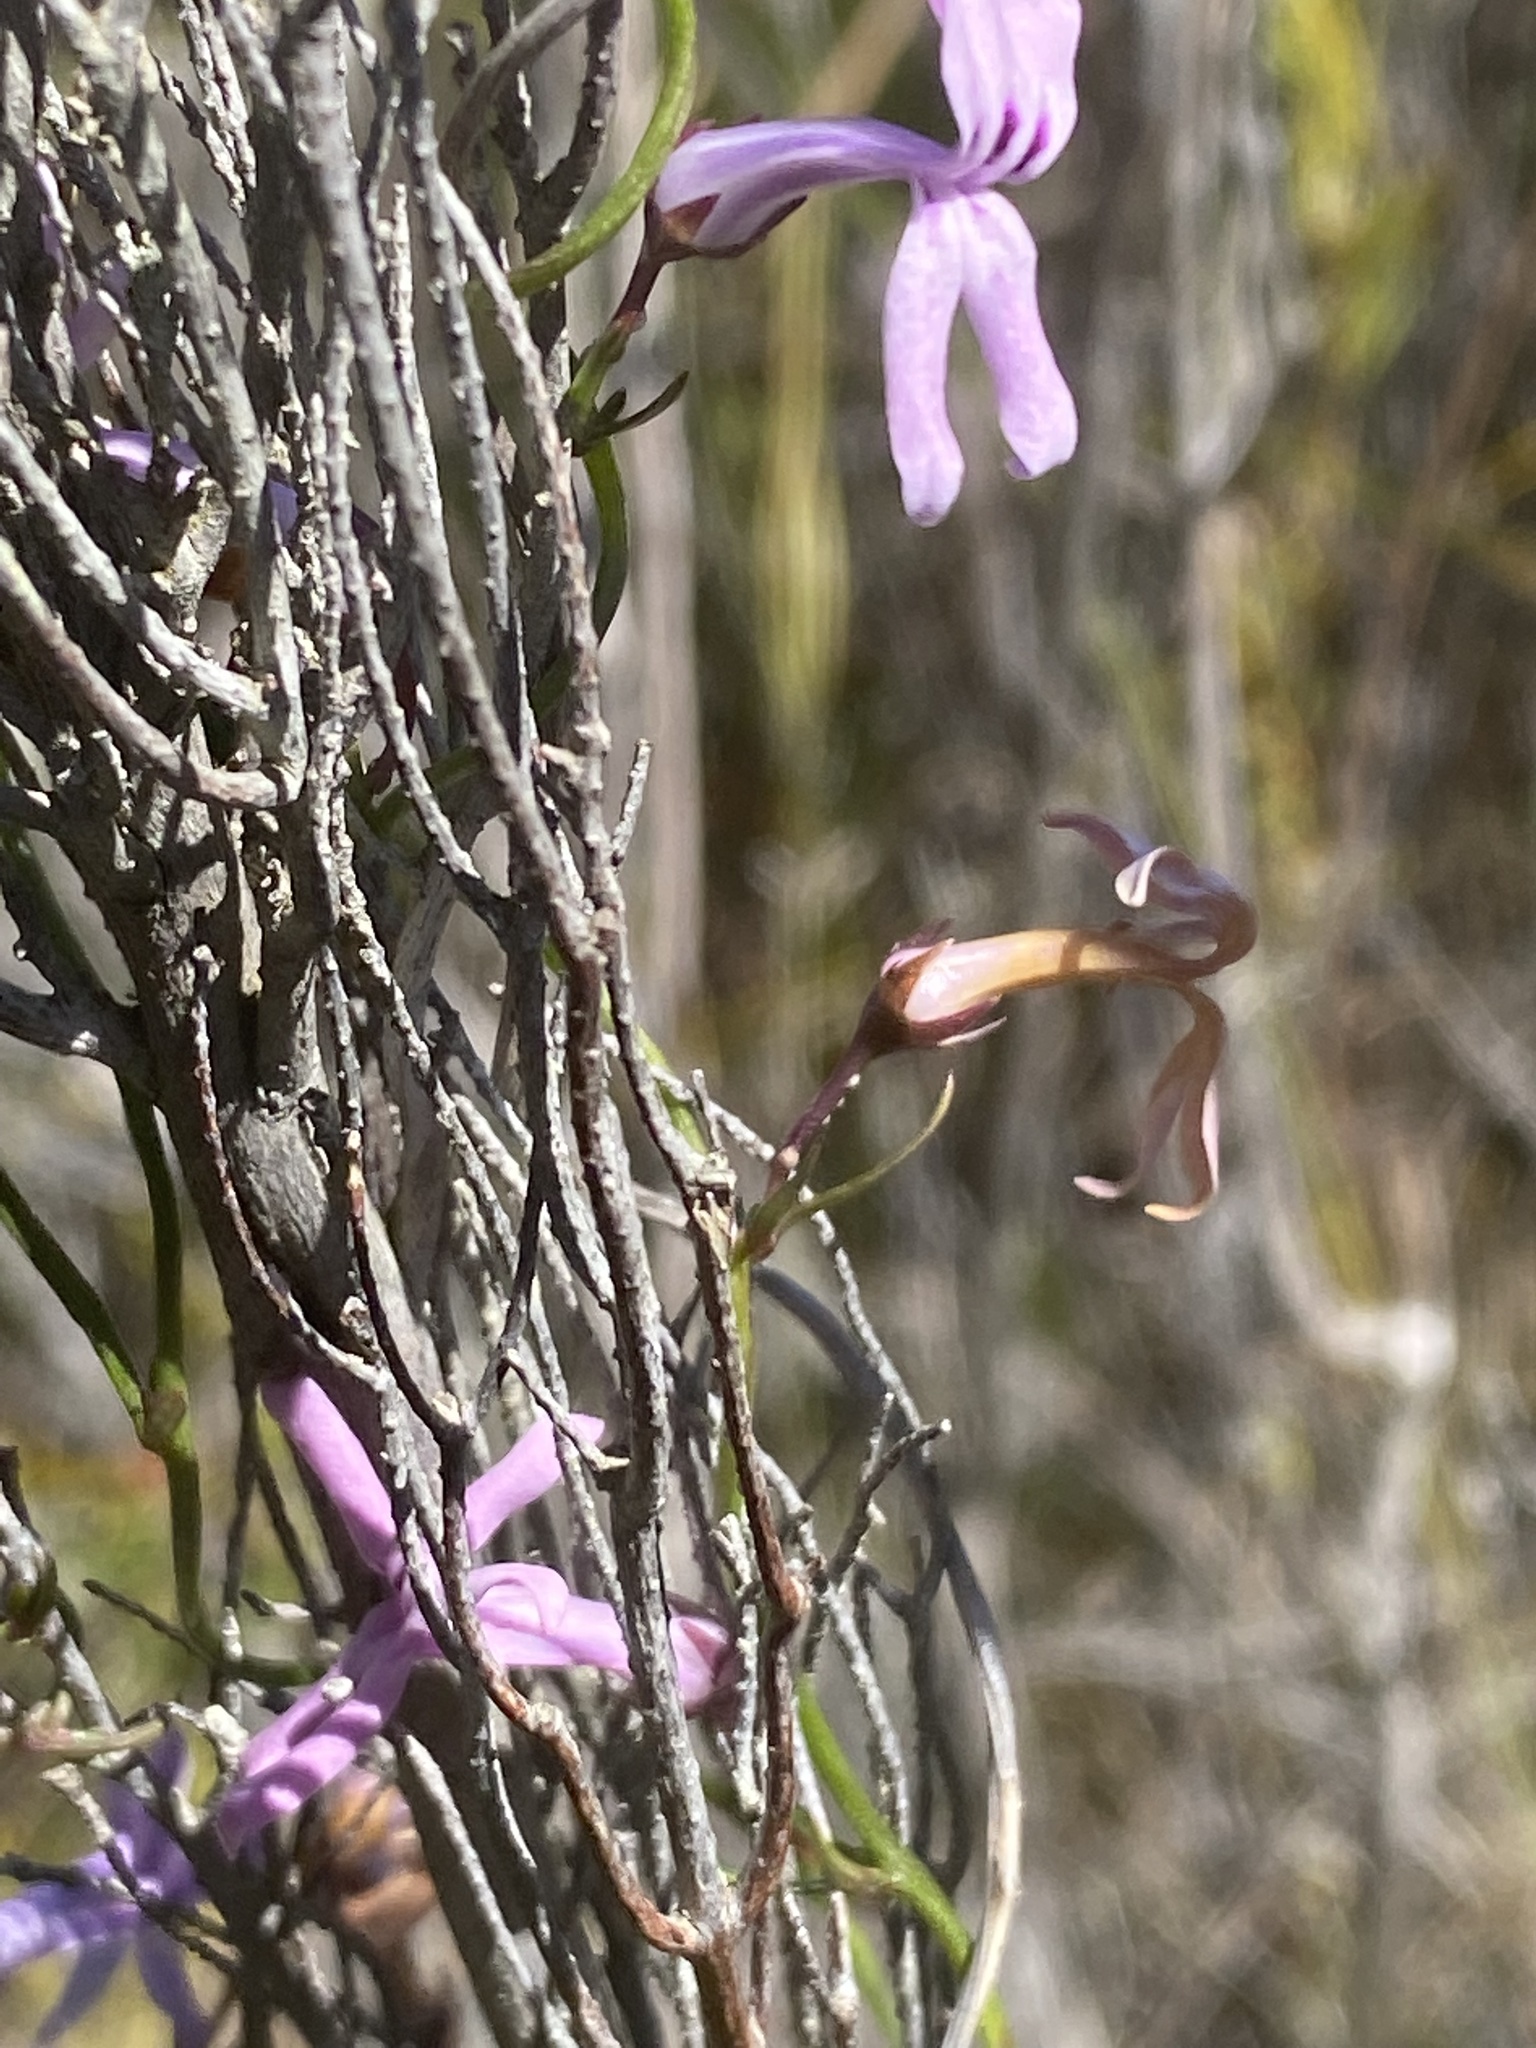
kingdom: Plantae
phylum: Tracheophyta
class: Magnoliopsida
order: Asterales
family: Campanulaceae
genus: Cyphia
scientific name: Cyphia volubilis
